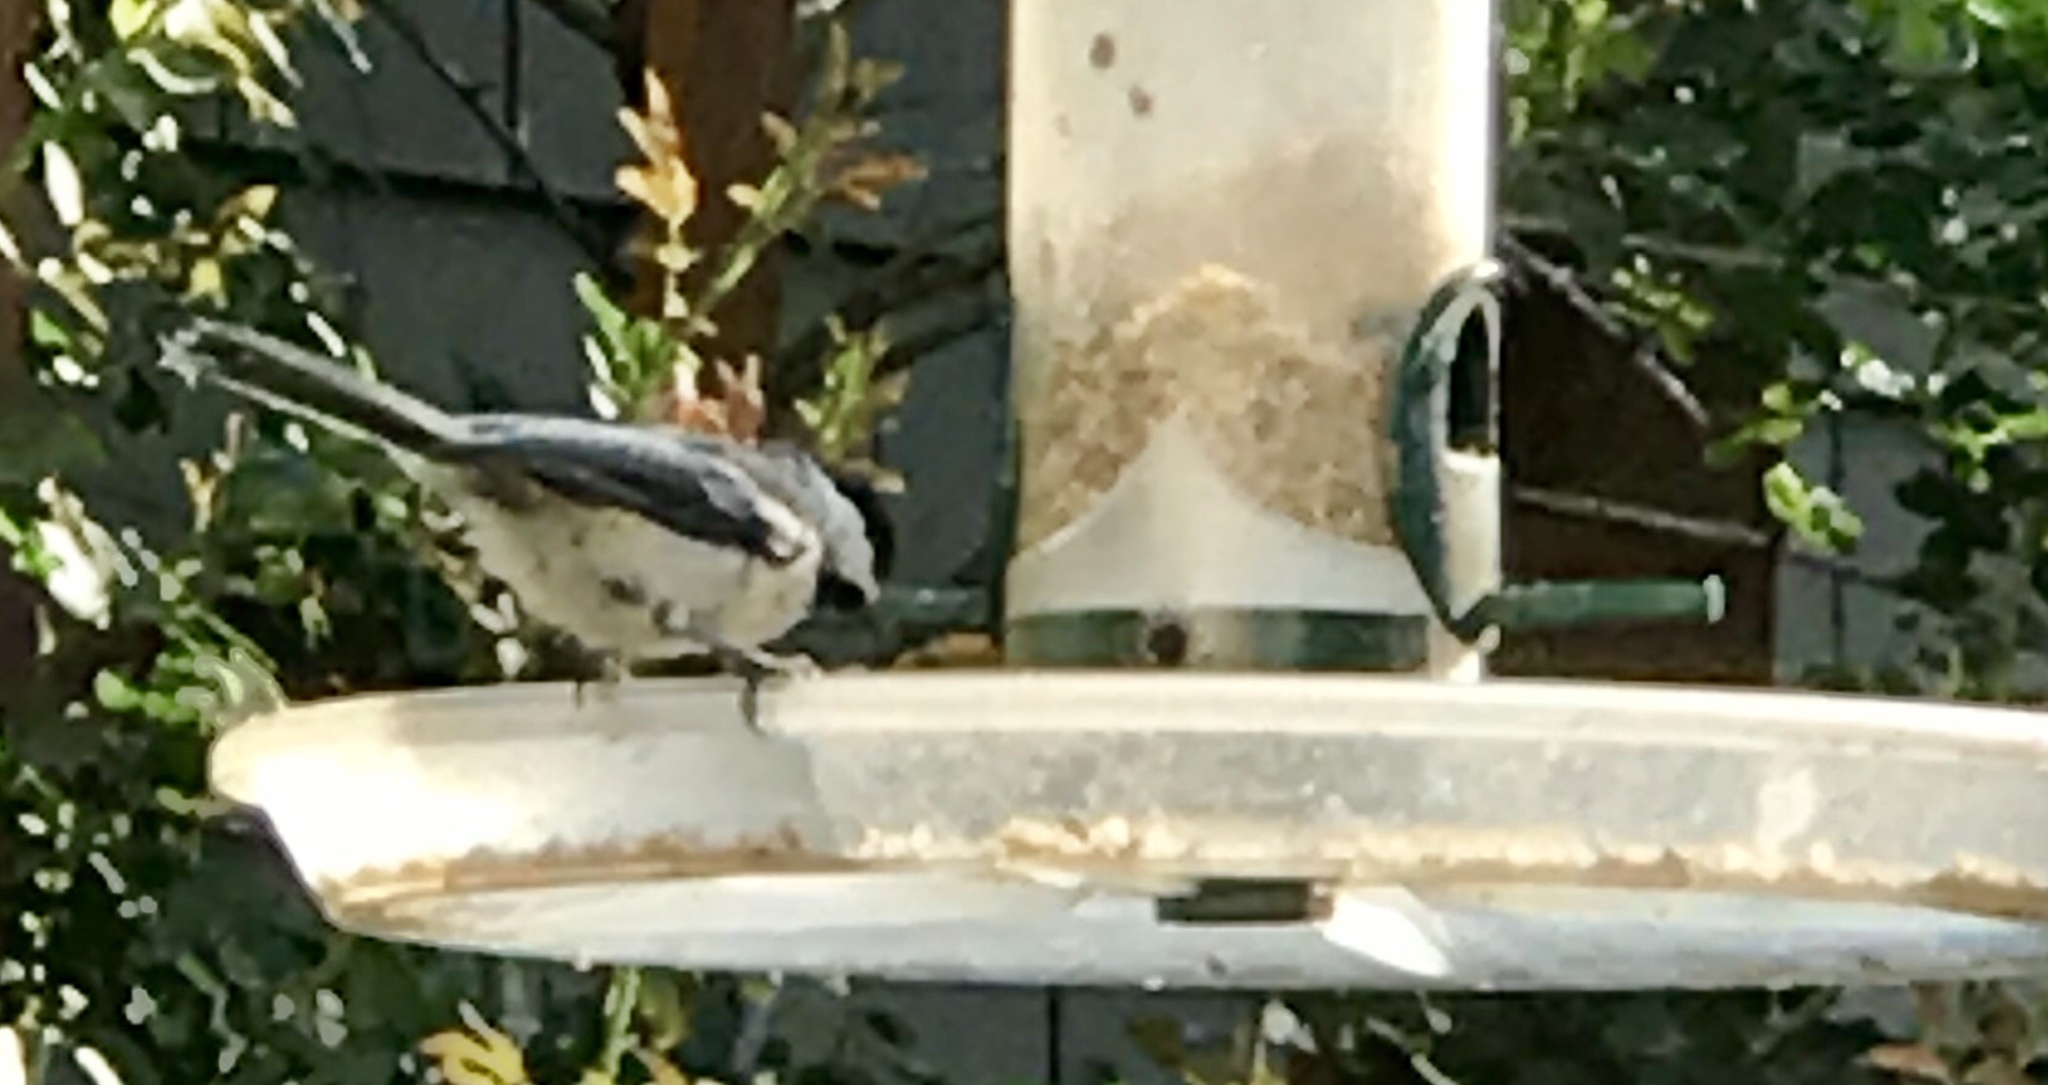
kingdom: Animalia
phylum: Chordata
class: Aves
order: Passeriformes
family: Paridae
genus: Poecile
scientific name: Poecile atricapillus
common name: Black-capped chickadee
